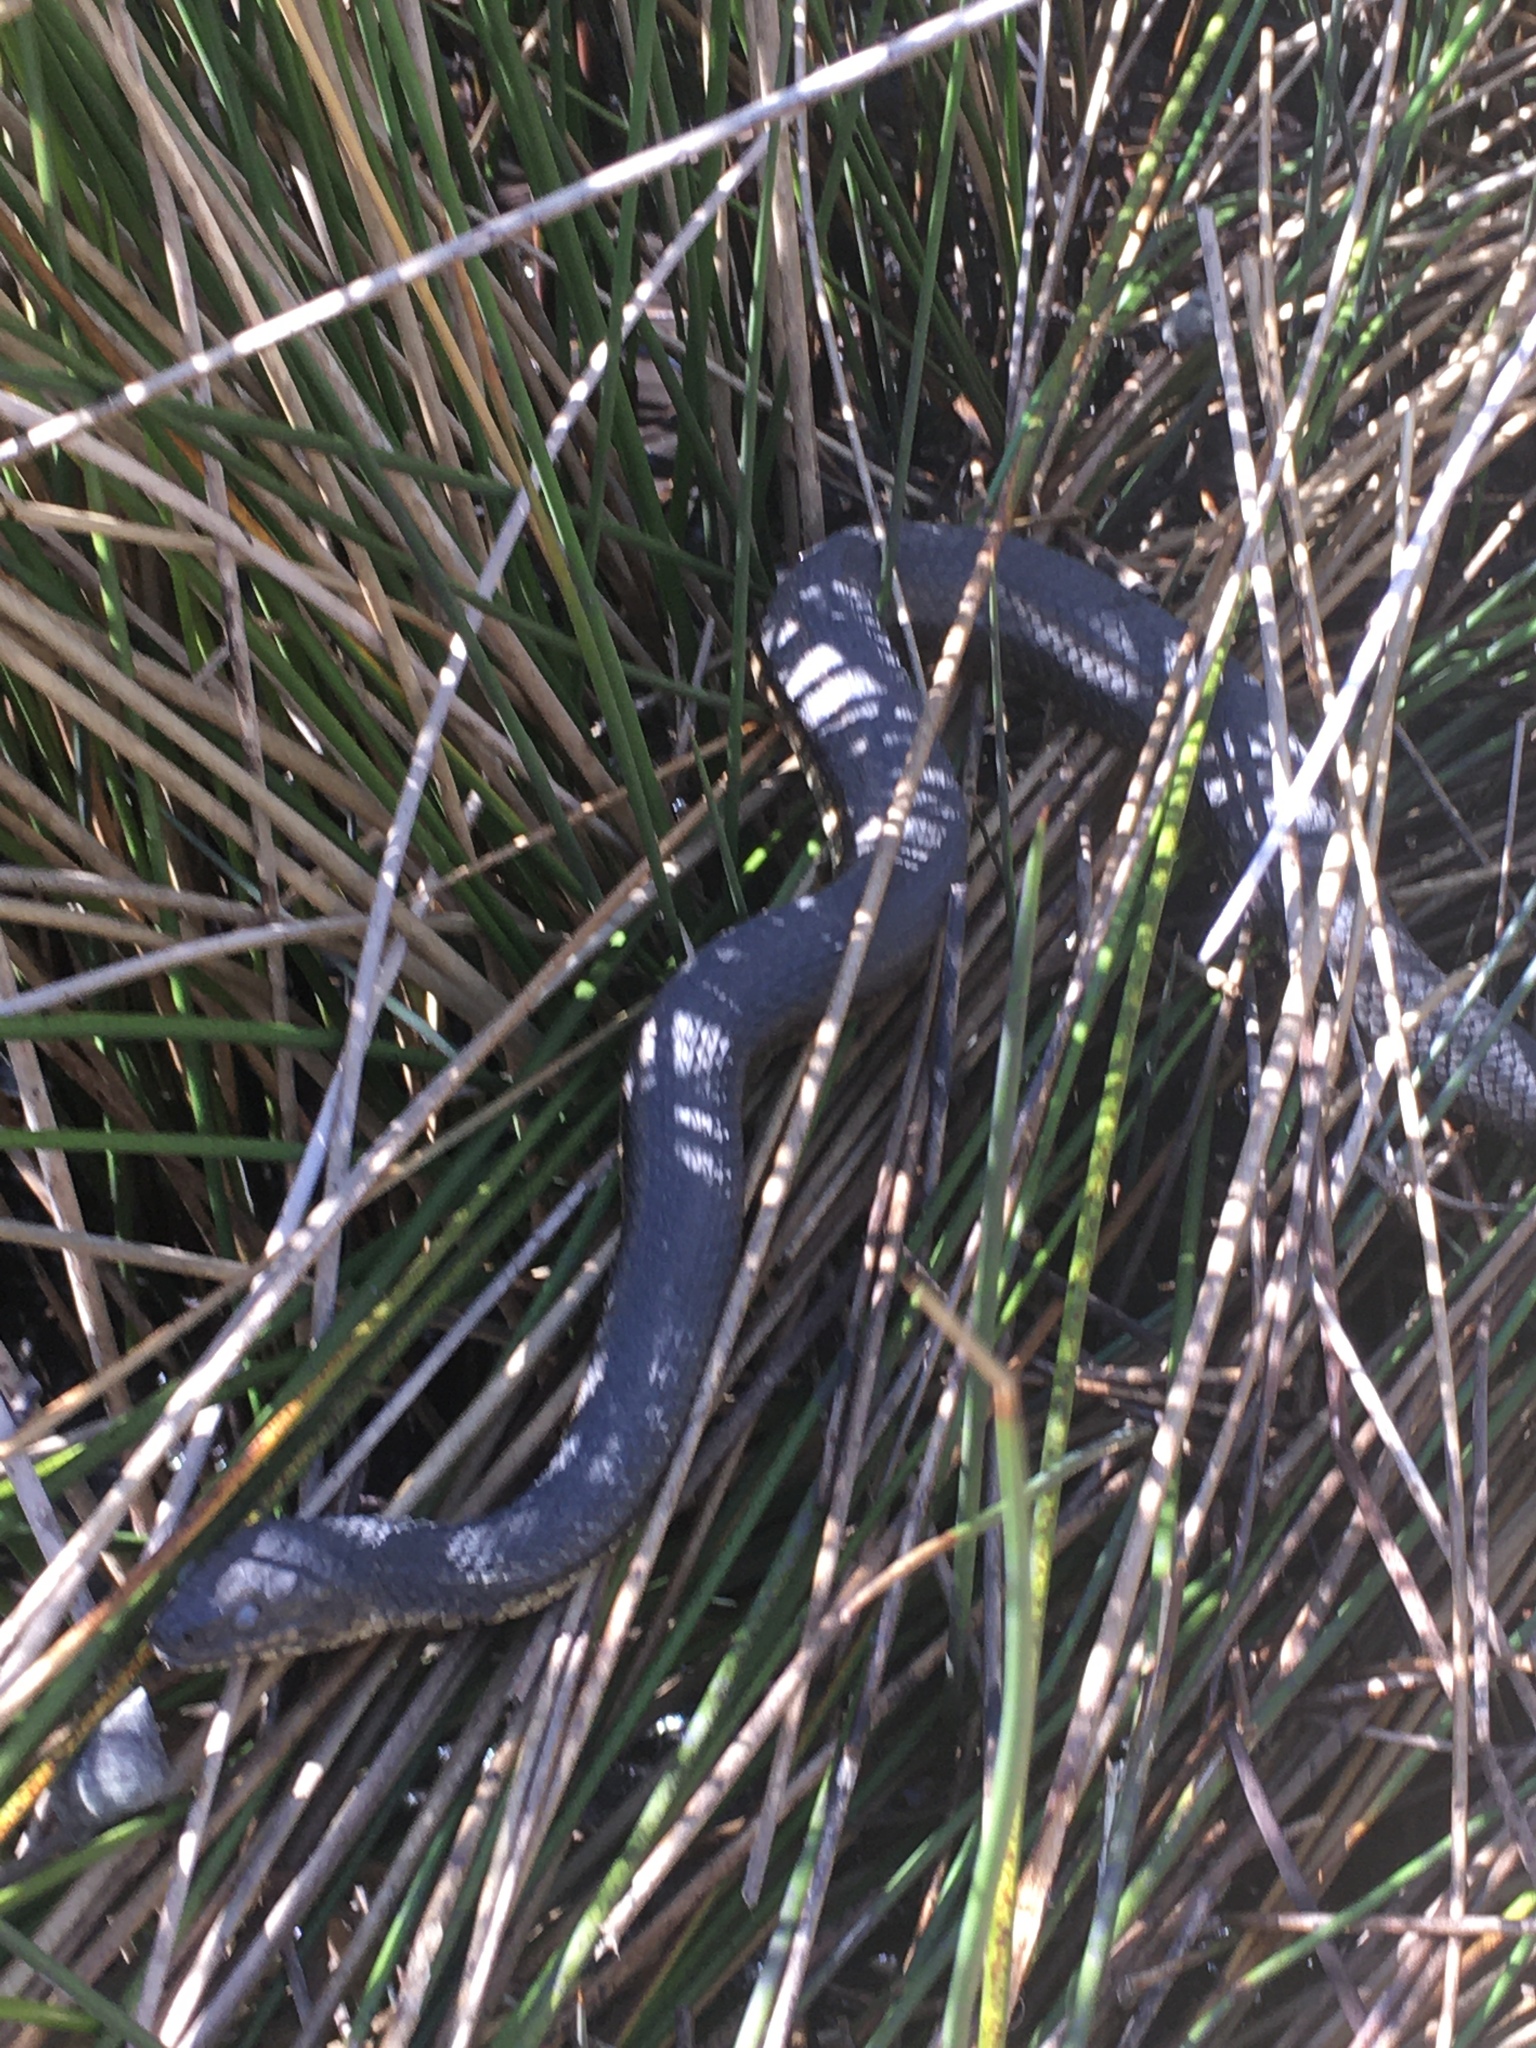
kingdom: Animalia
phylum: Chordata
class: Squamata
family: Colubridae
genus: Nerodia
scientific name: Nerodia clarkii
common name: Atlantic saltmarsh snake
